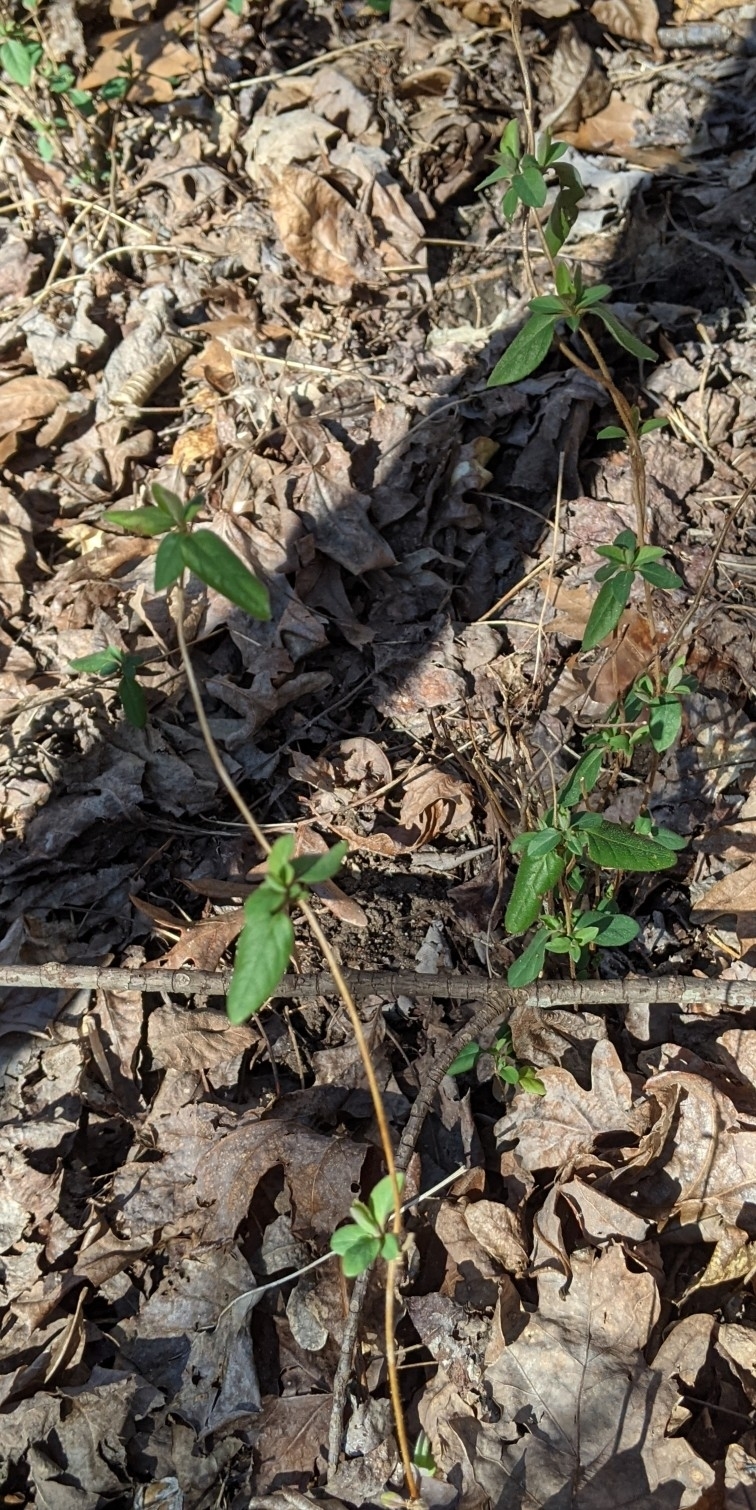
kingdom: Plantae
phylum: Tracheophyta
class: Magnoliopsida
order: Dipsacales
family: Caprifoliaceae
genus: Lonicera
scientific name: Lonicera japonica
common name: Japanese honeysuckle
